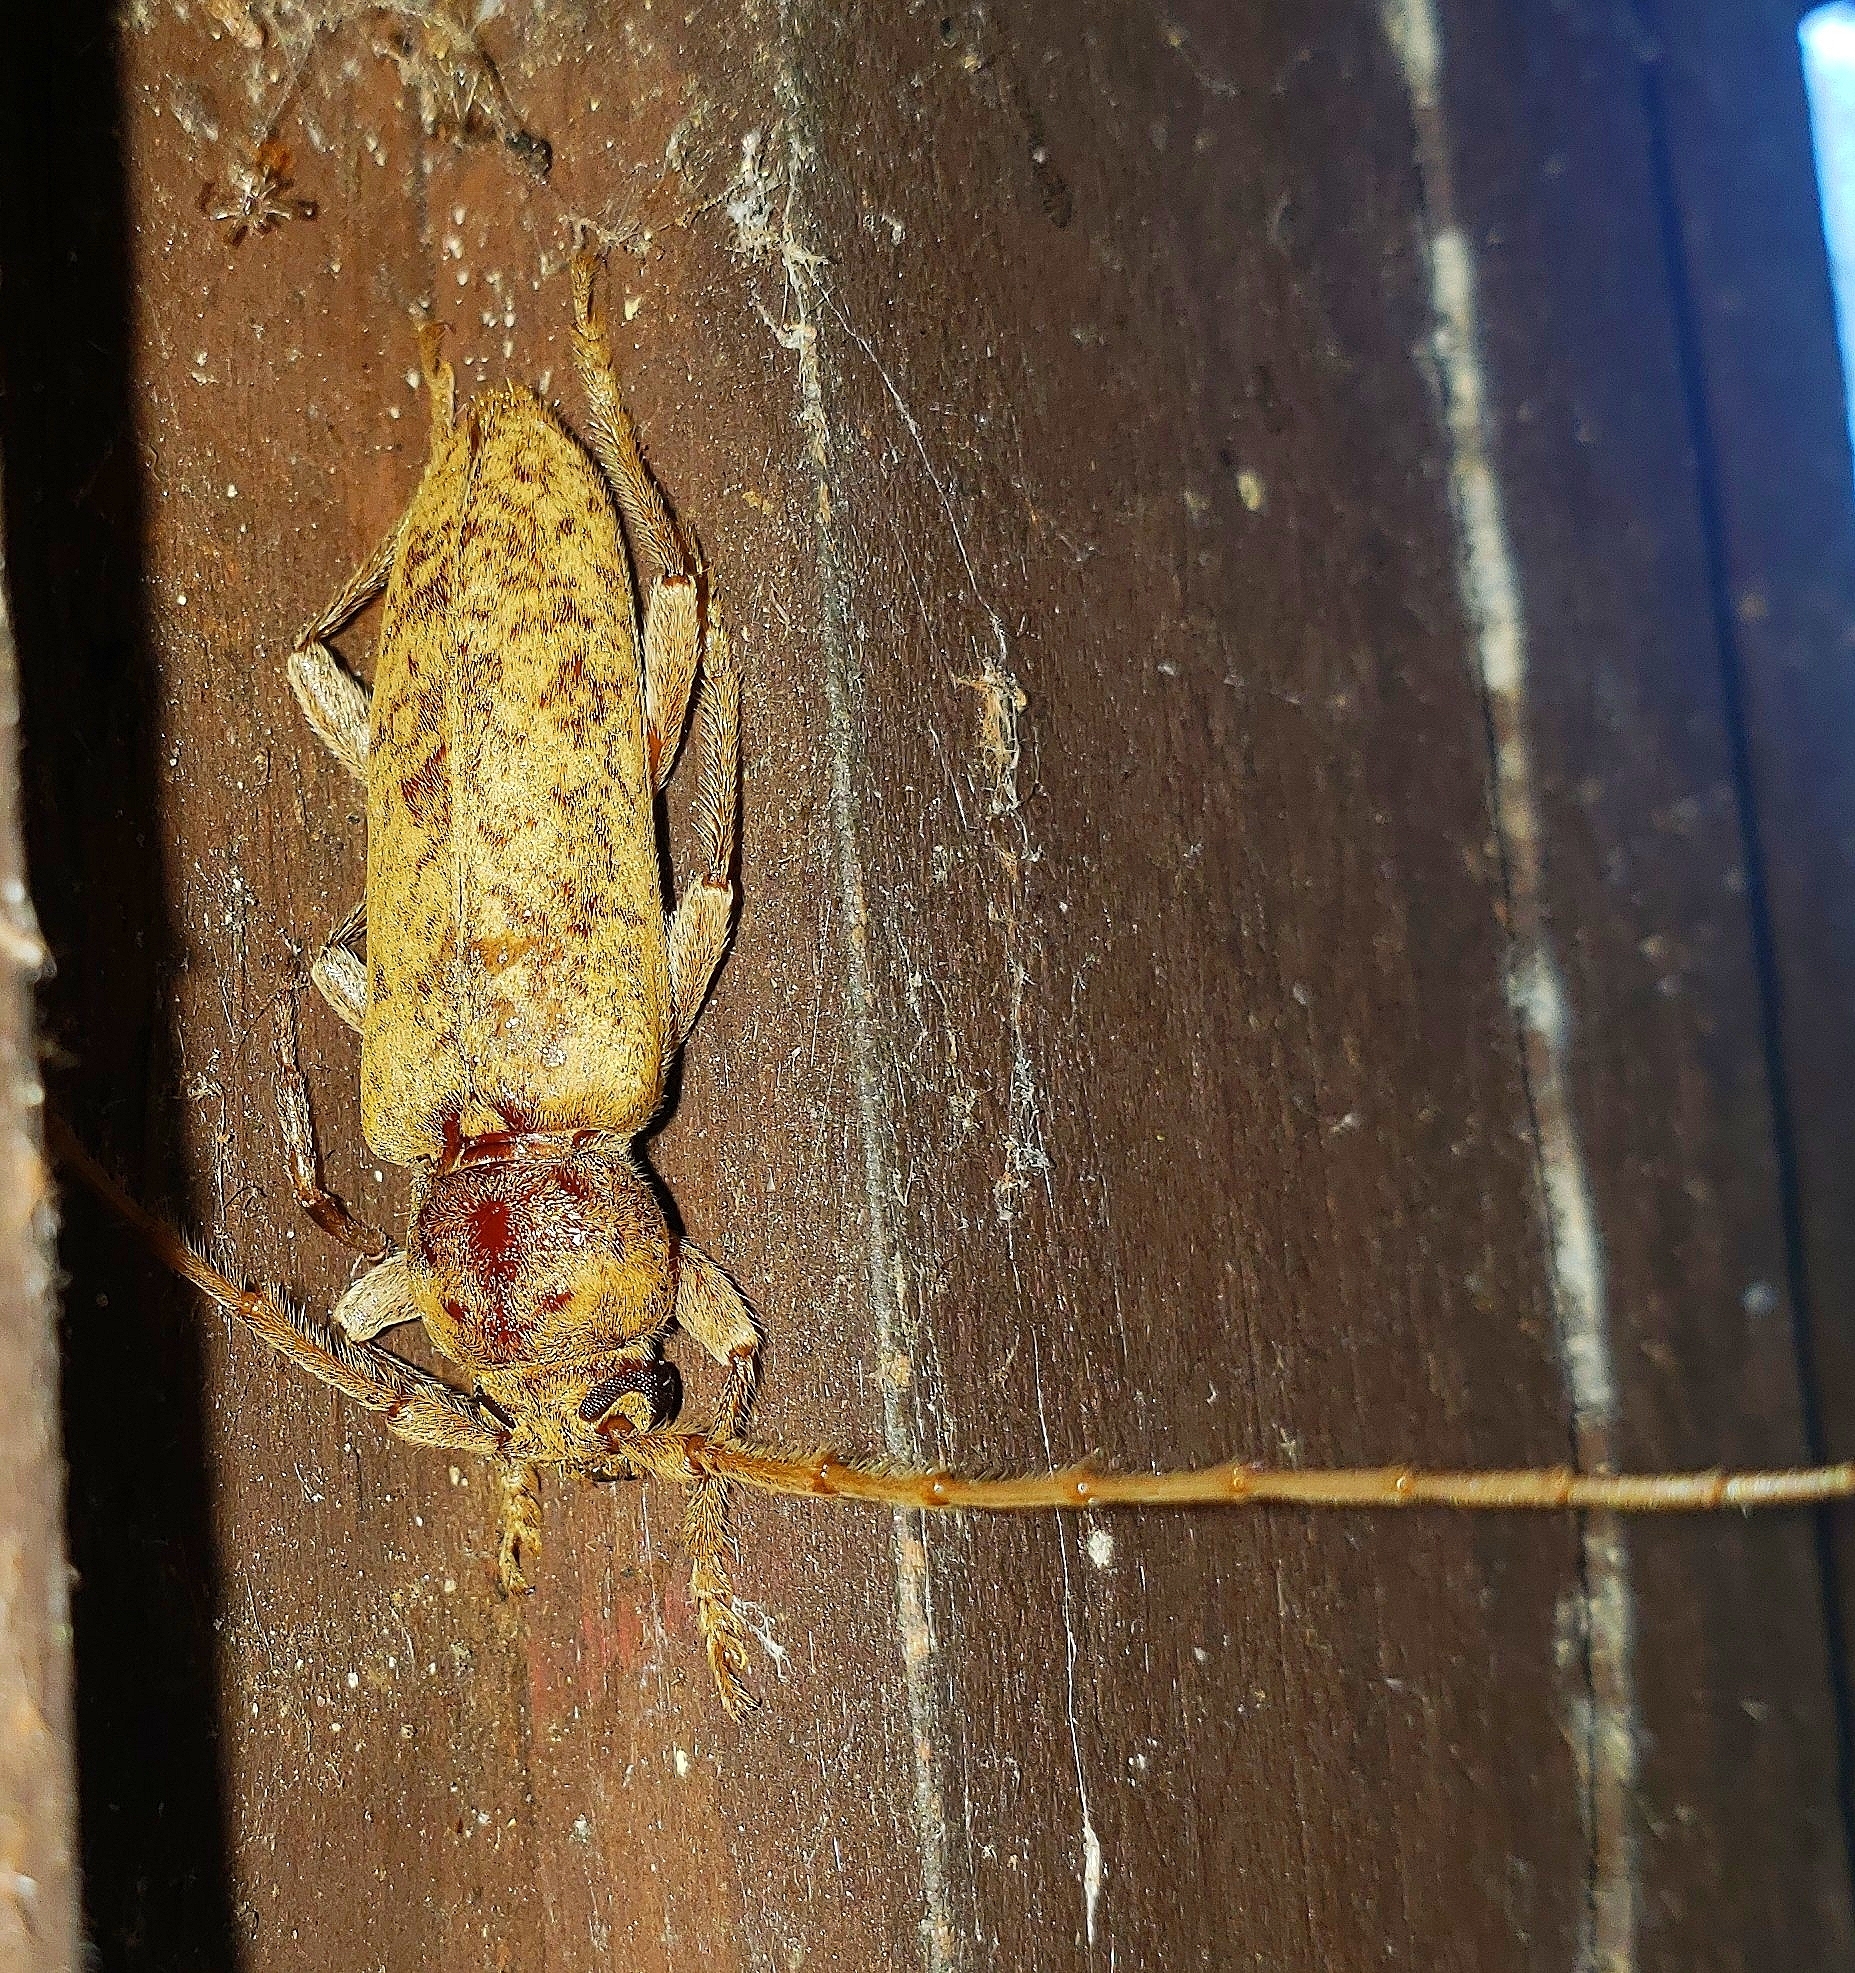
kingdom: Animalia
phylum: Arthropoda
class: Insecta
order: Coleoptera
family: Cerambycidae
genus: Enaphalodes
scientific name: Enaphalodes rufulus
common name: Red oak borer
